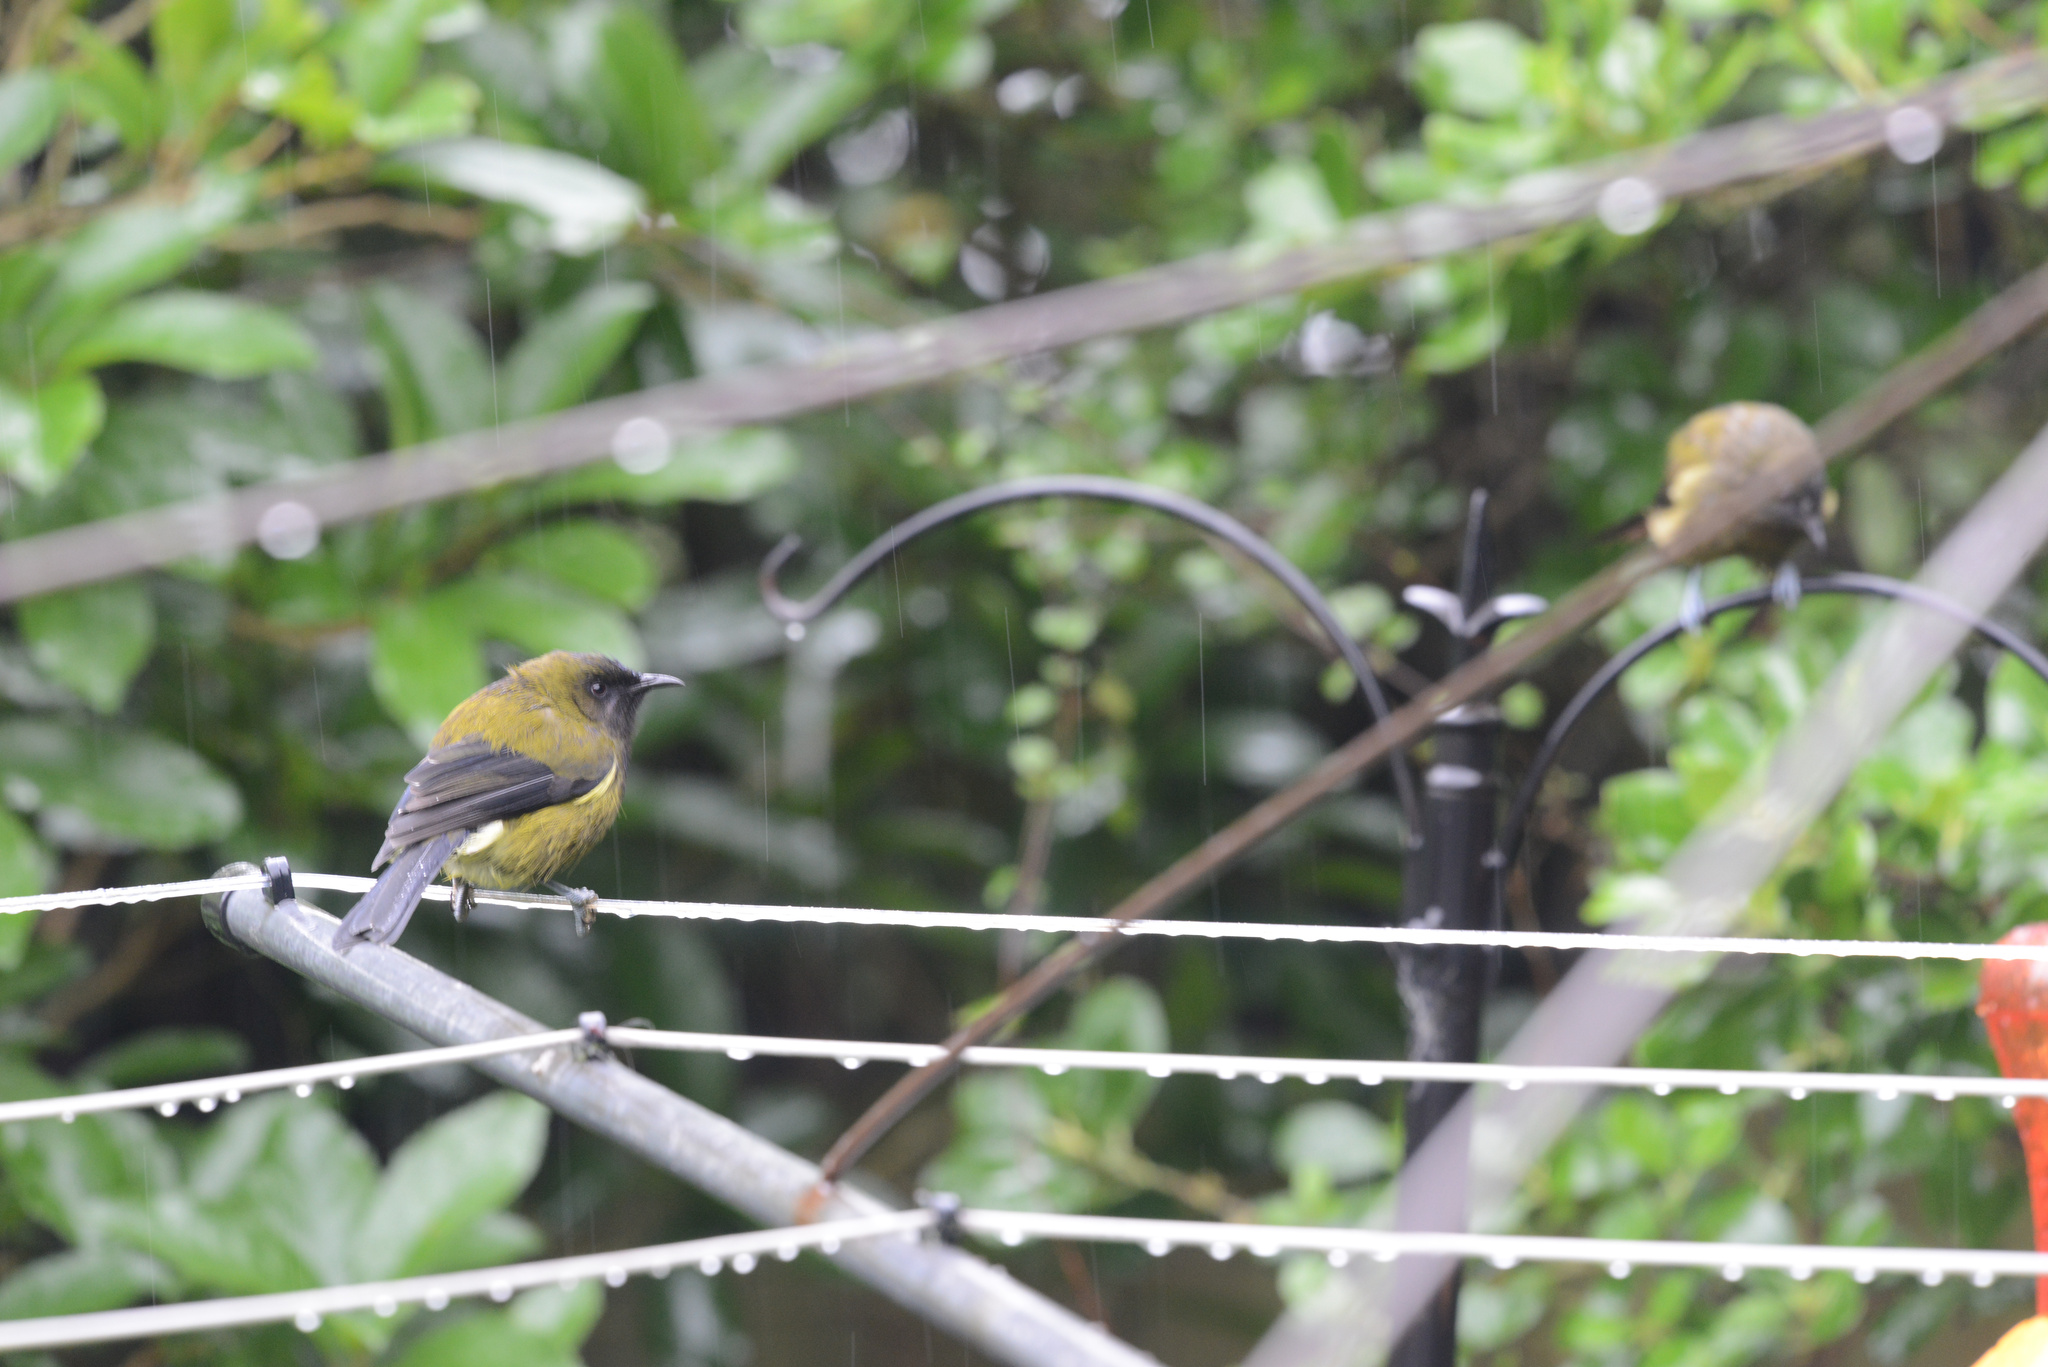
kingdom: Animalia
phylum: Chordata
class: Aves
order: Passeriformes
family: Meliphagidae
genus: Anthornis
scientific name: Anthornis melanura
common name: New zealand bellbird
